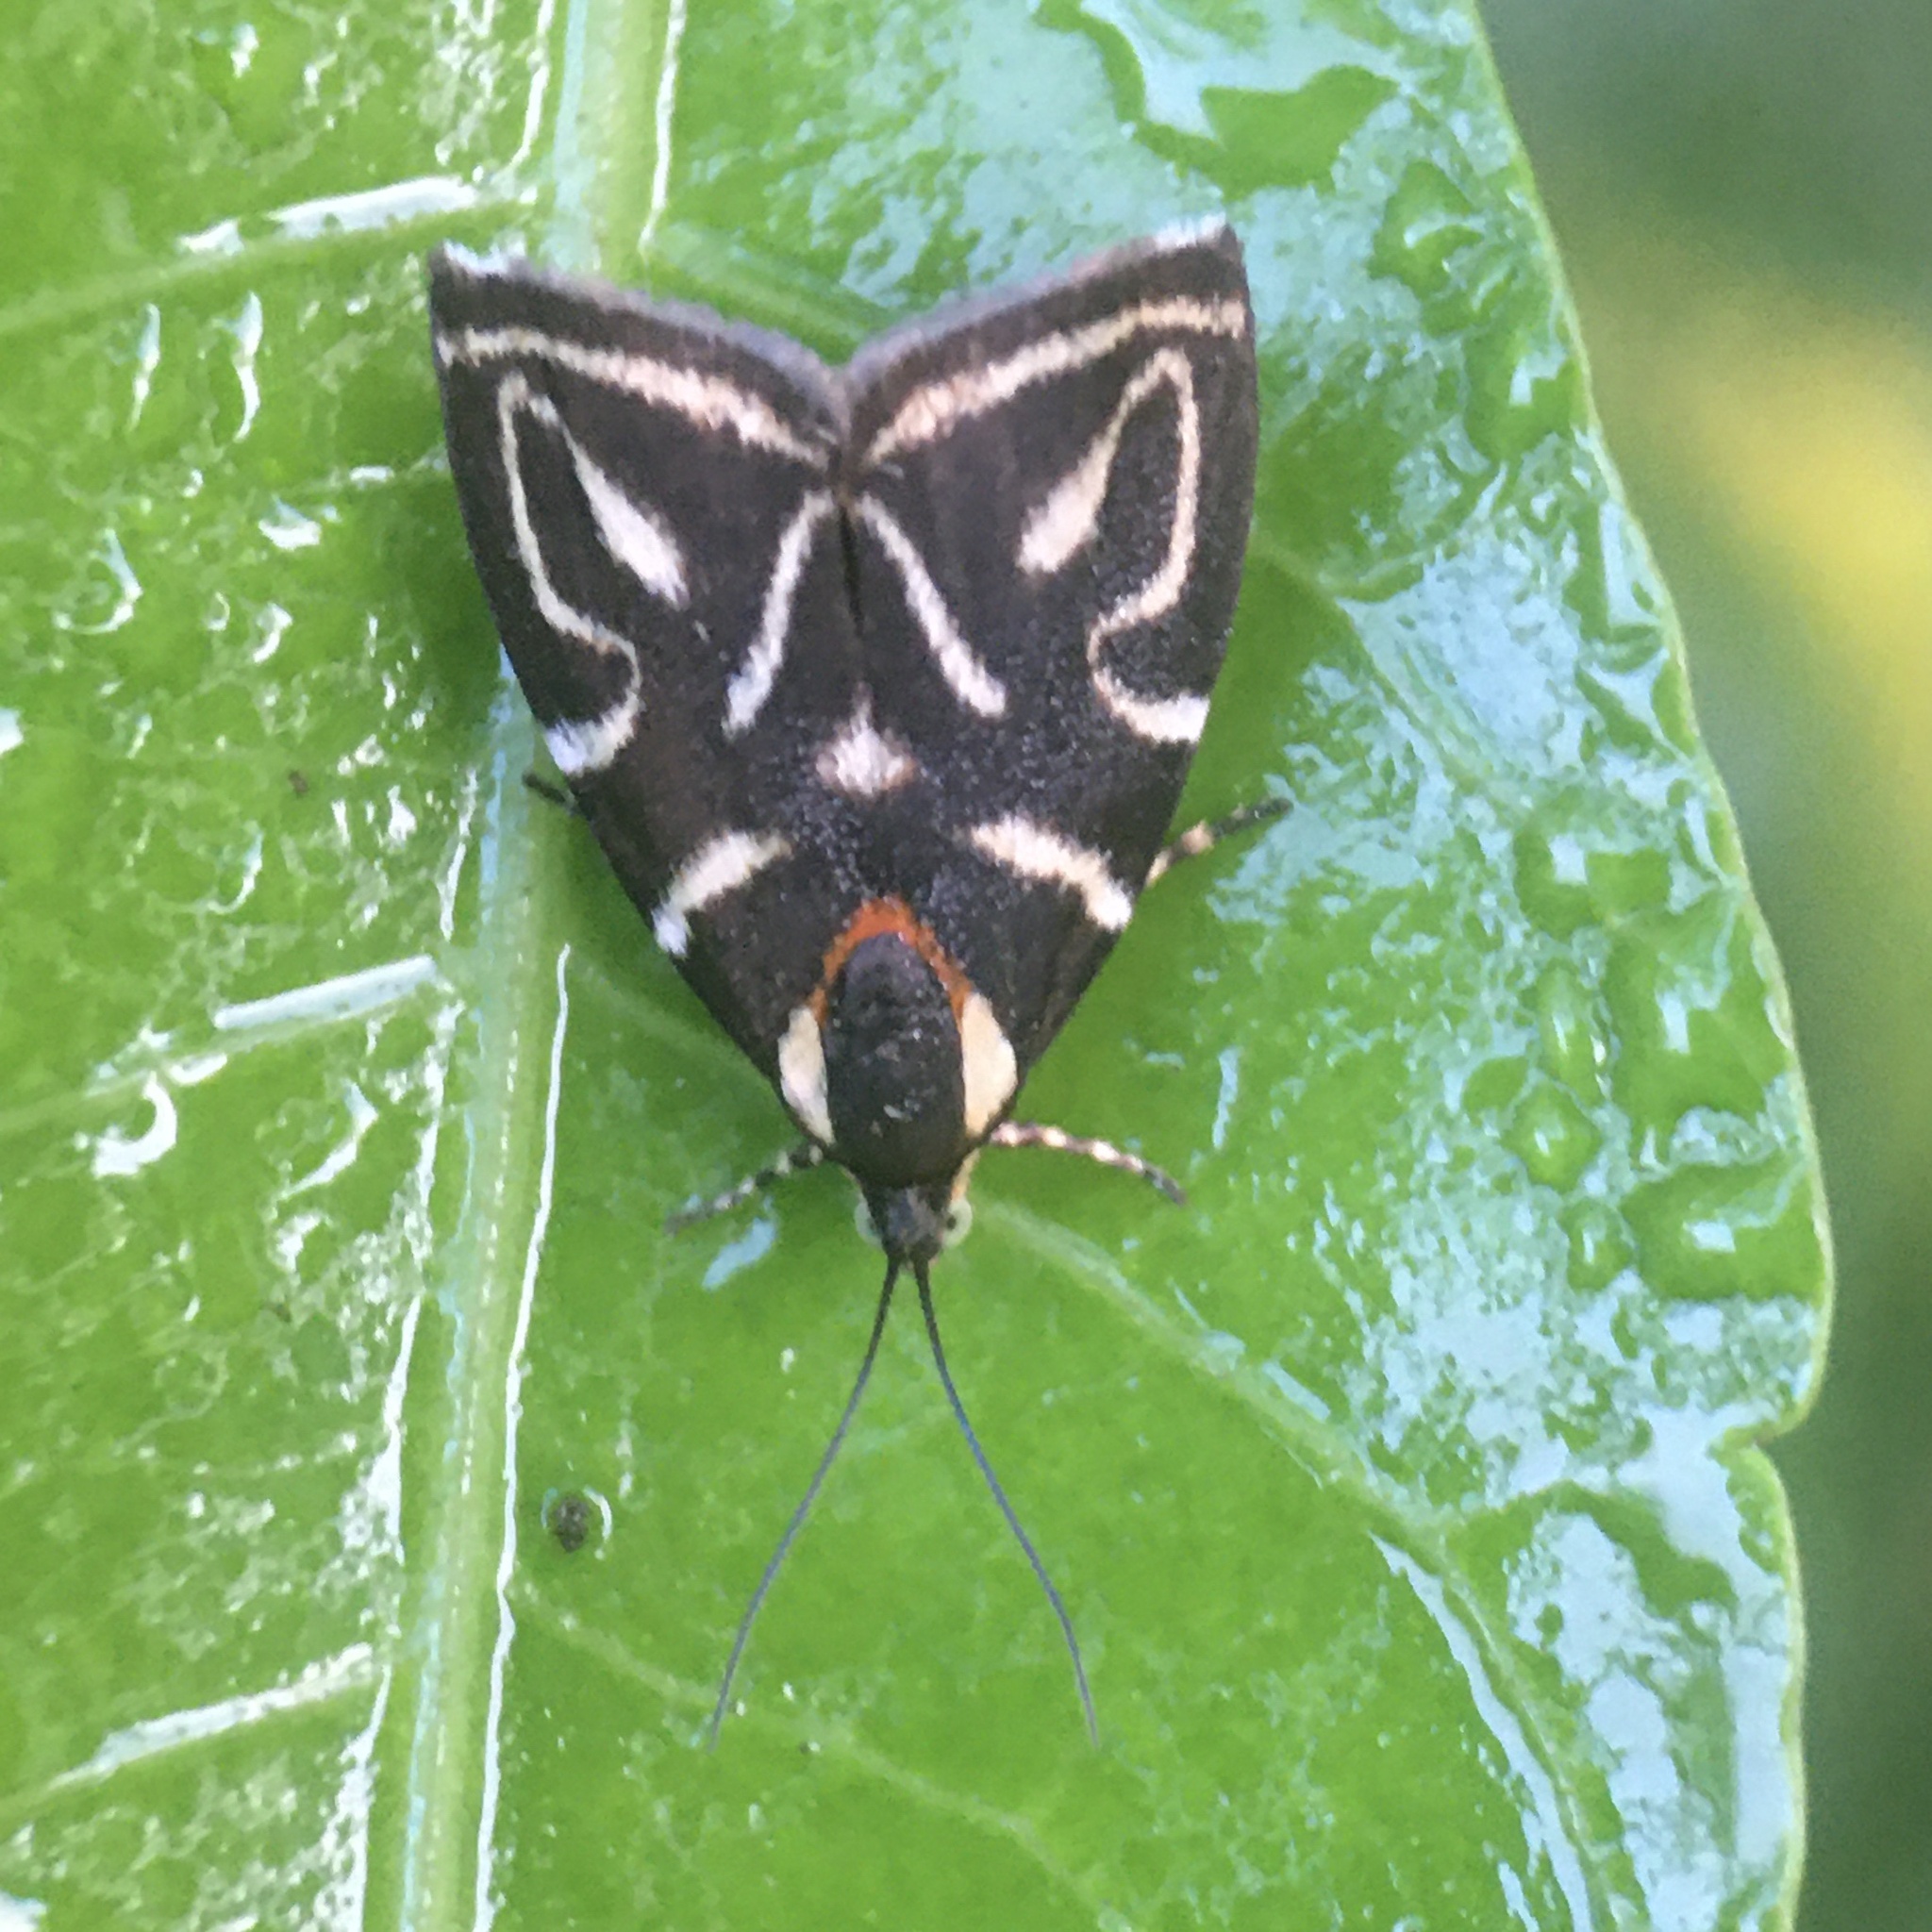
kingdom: Animalia
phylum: Arthropoda
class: Insecta
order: Lepidoptera
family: Choreutidae
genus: Anthophila
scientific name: Anthophila albertiana
